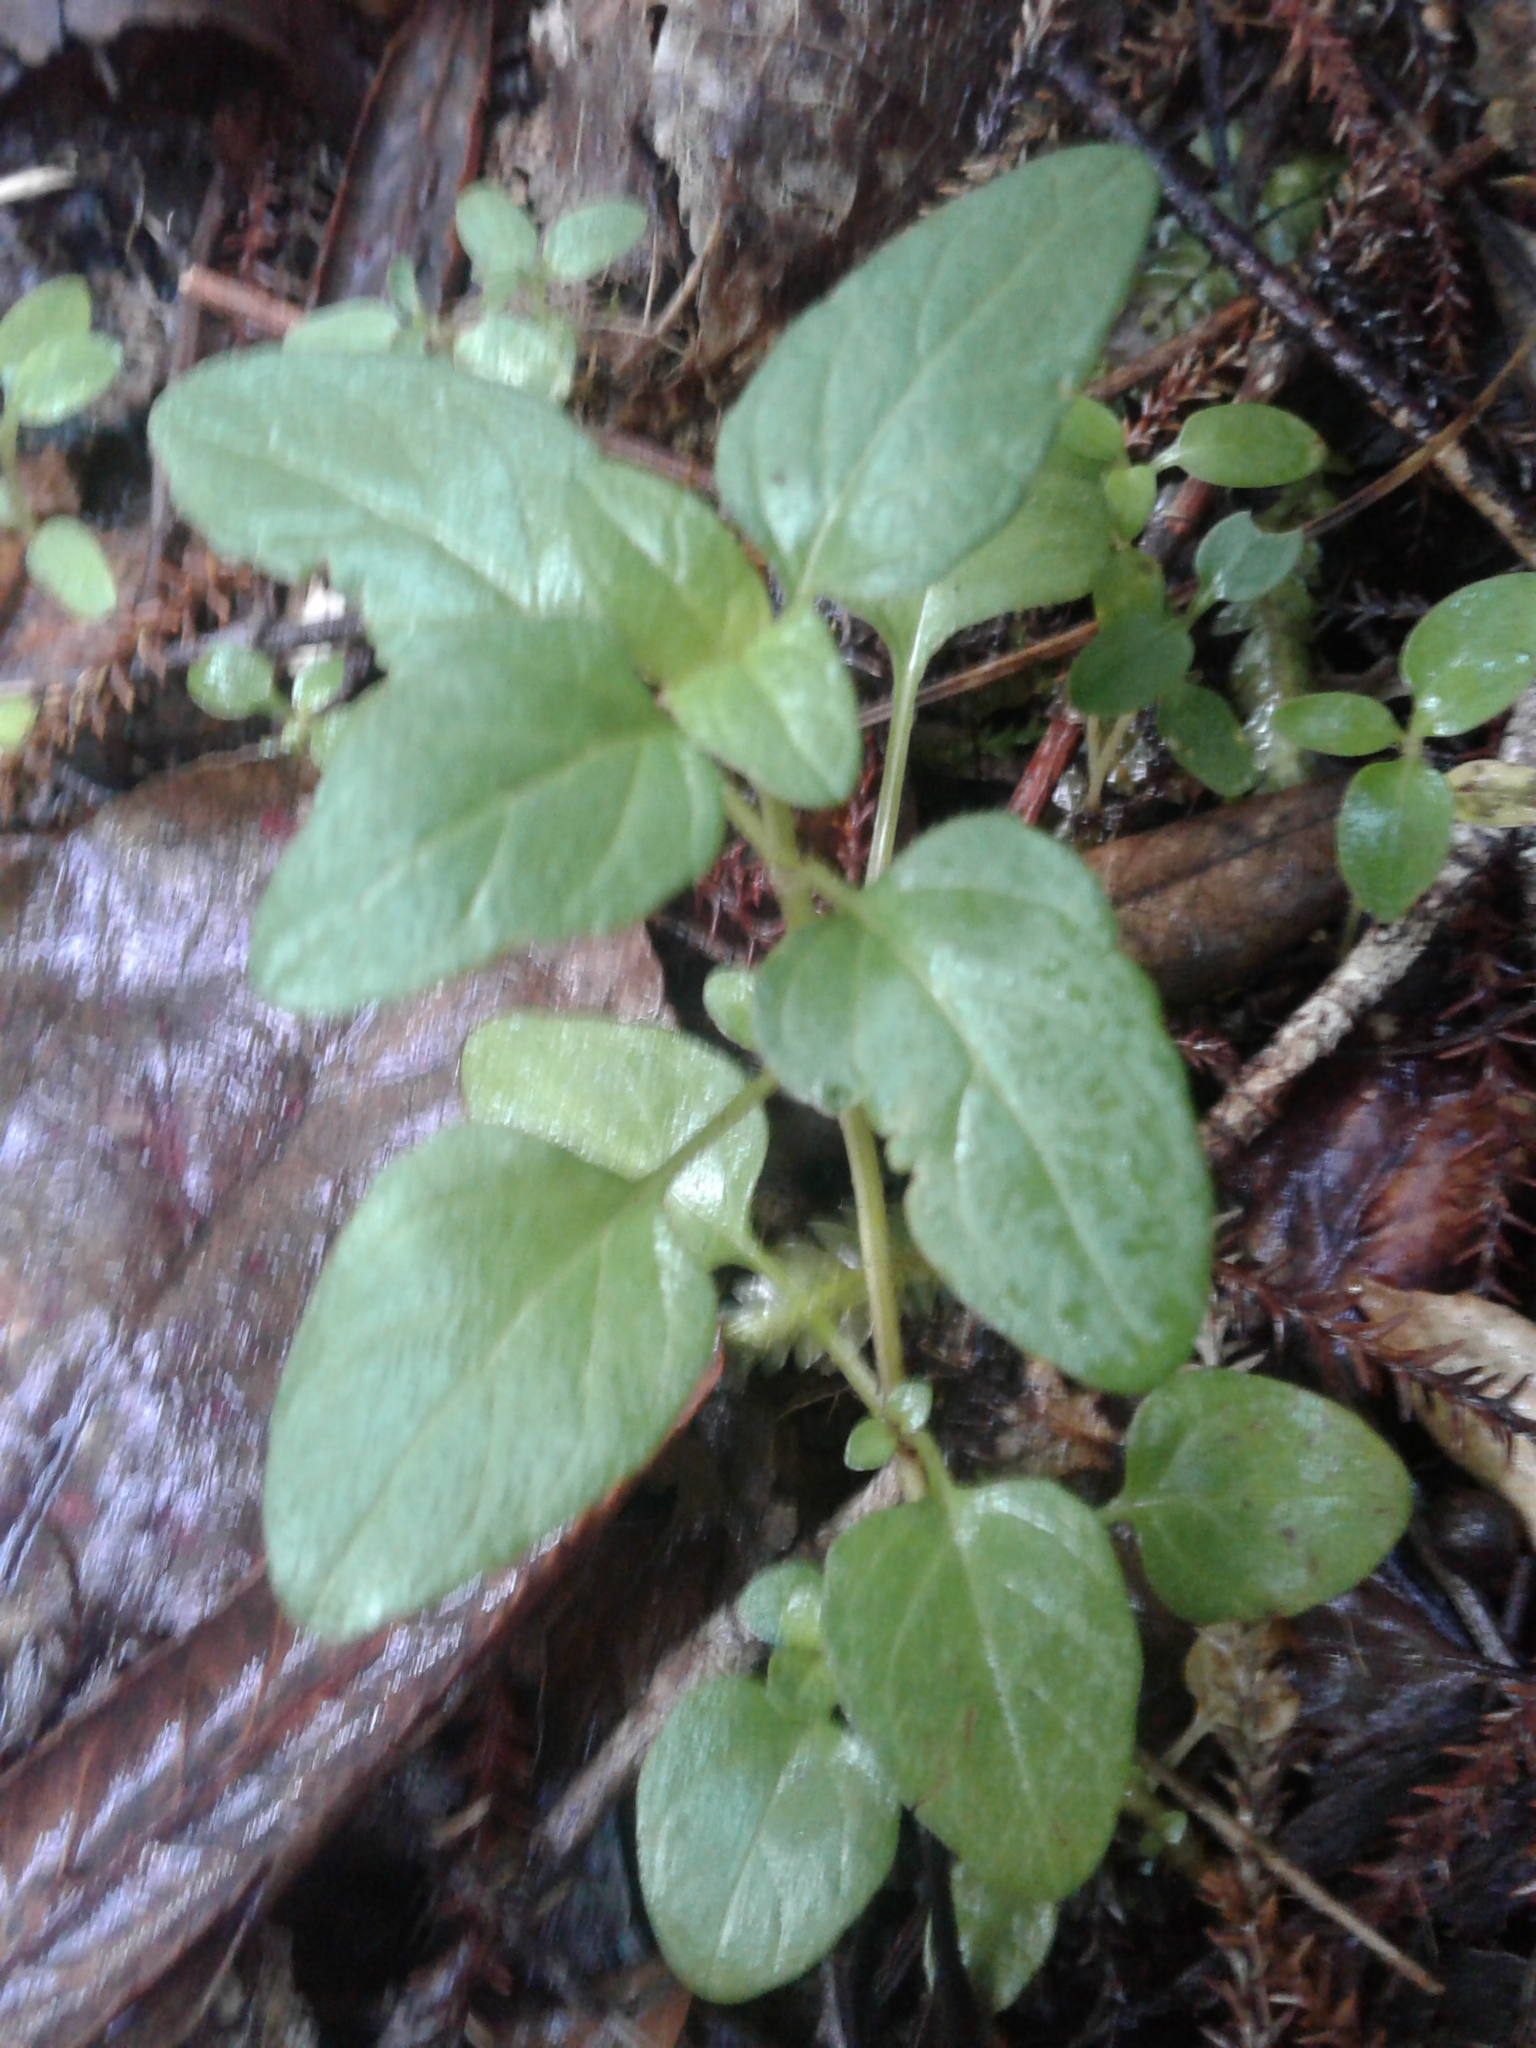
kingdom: Plantae
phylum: Tracheophyta
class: Magnoliopsida
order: Lamiales
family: Lamiaceae
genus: Prunella
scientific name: Prunella vulgaris
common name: Heal-all
